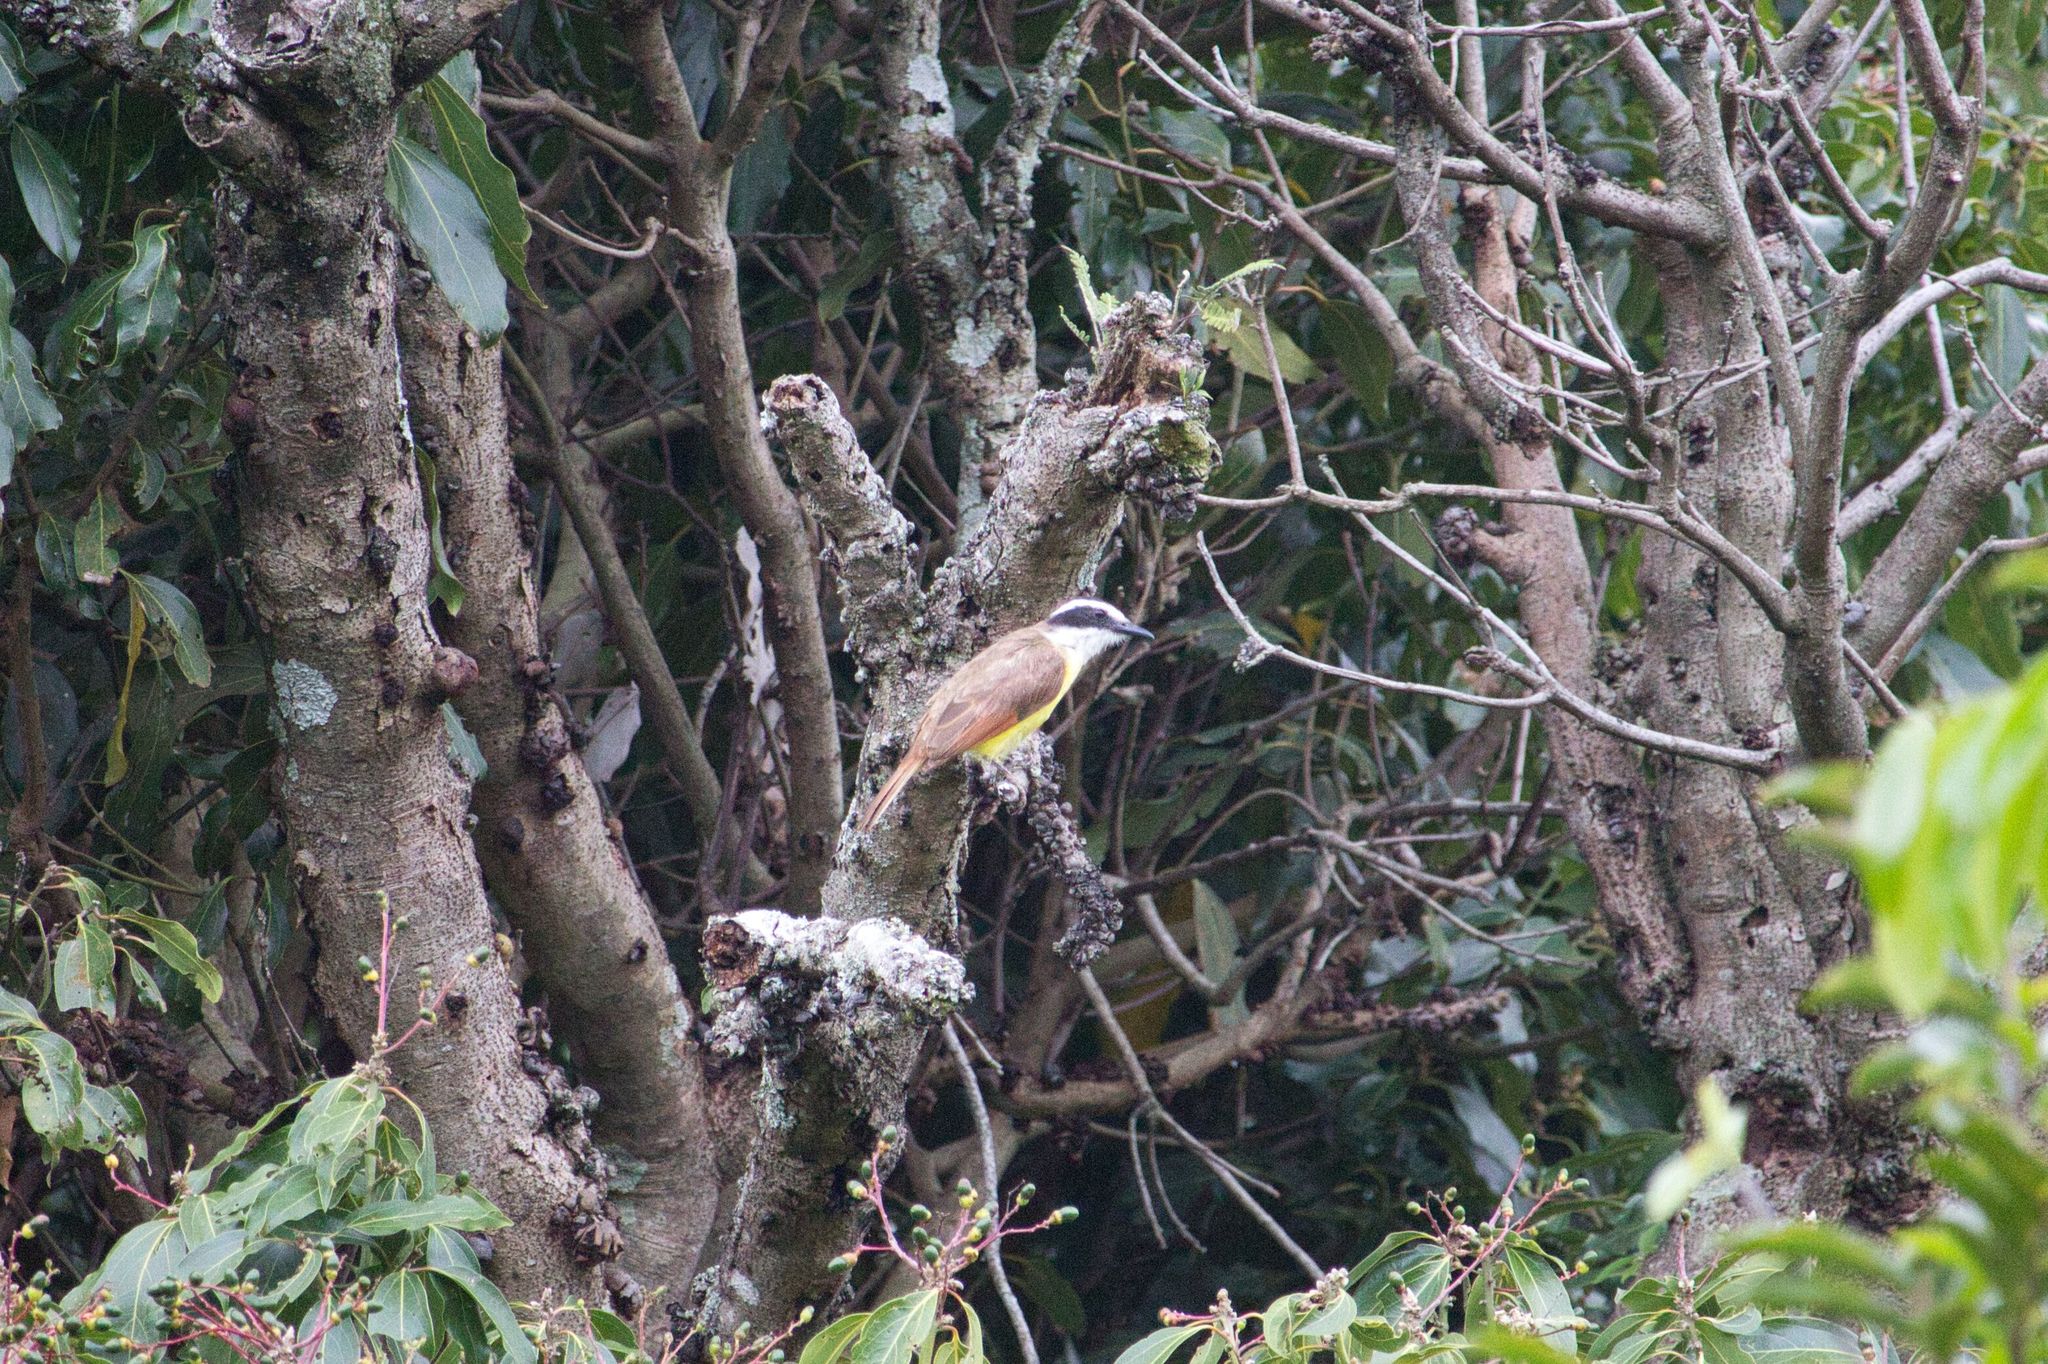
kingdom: Animalia
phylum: Chordata
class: Aves
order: Passeriformes
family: Tyrannidae
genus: Pitangus
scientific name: Pitangus sulphuratus
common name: Great kiskadee
